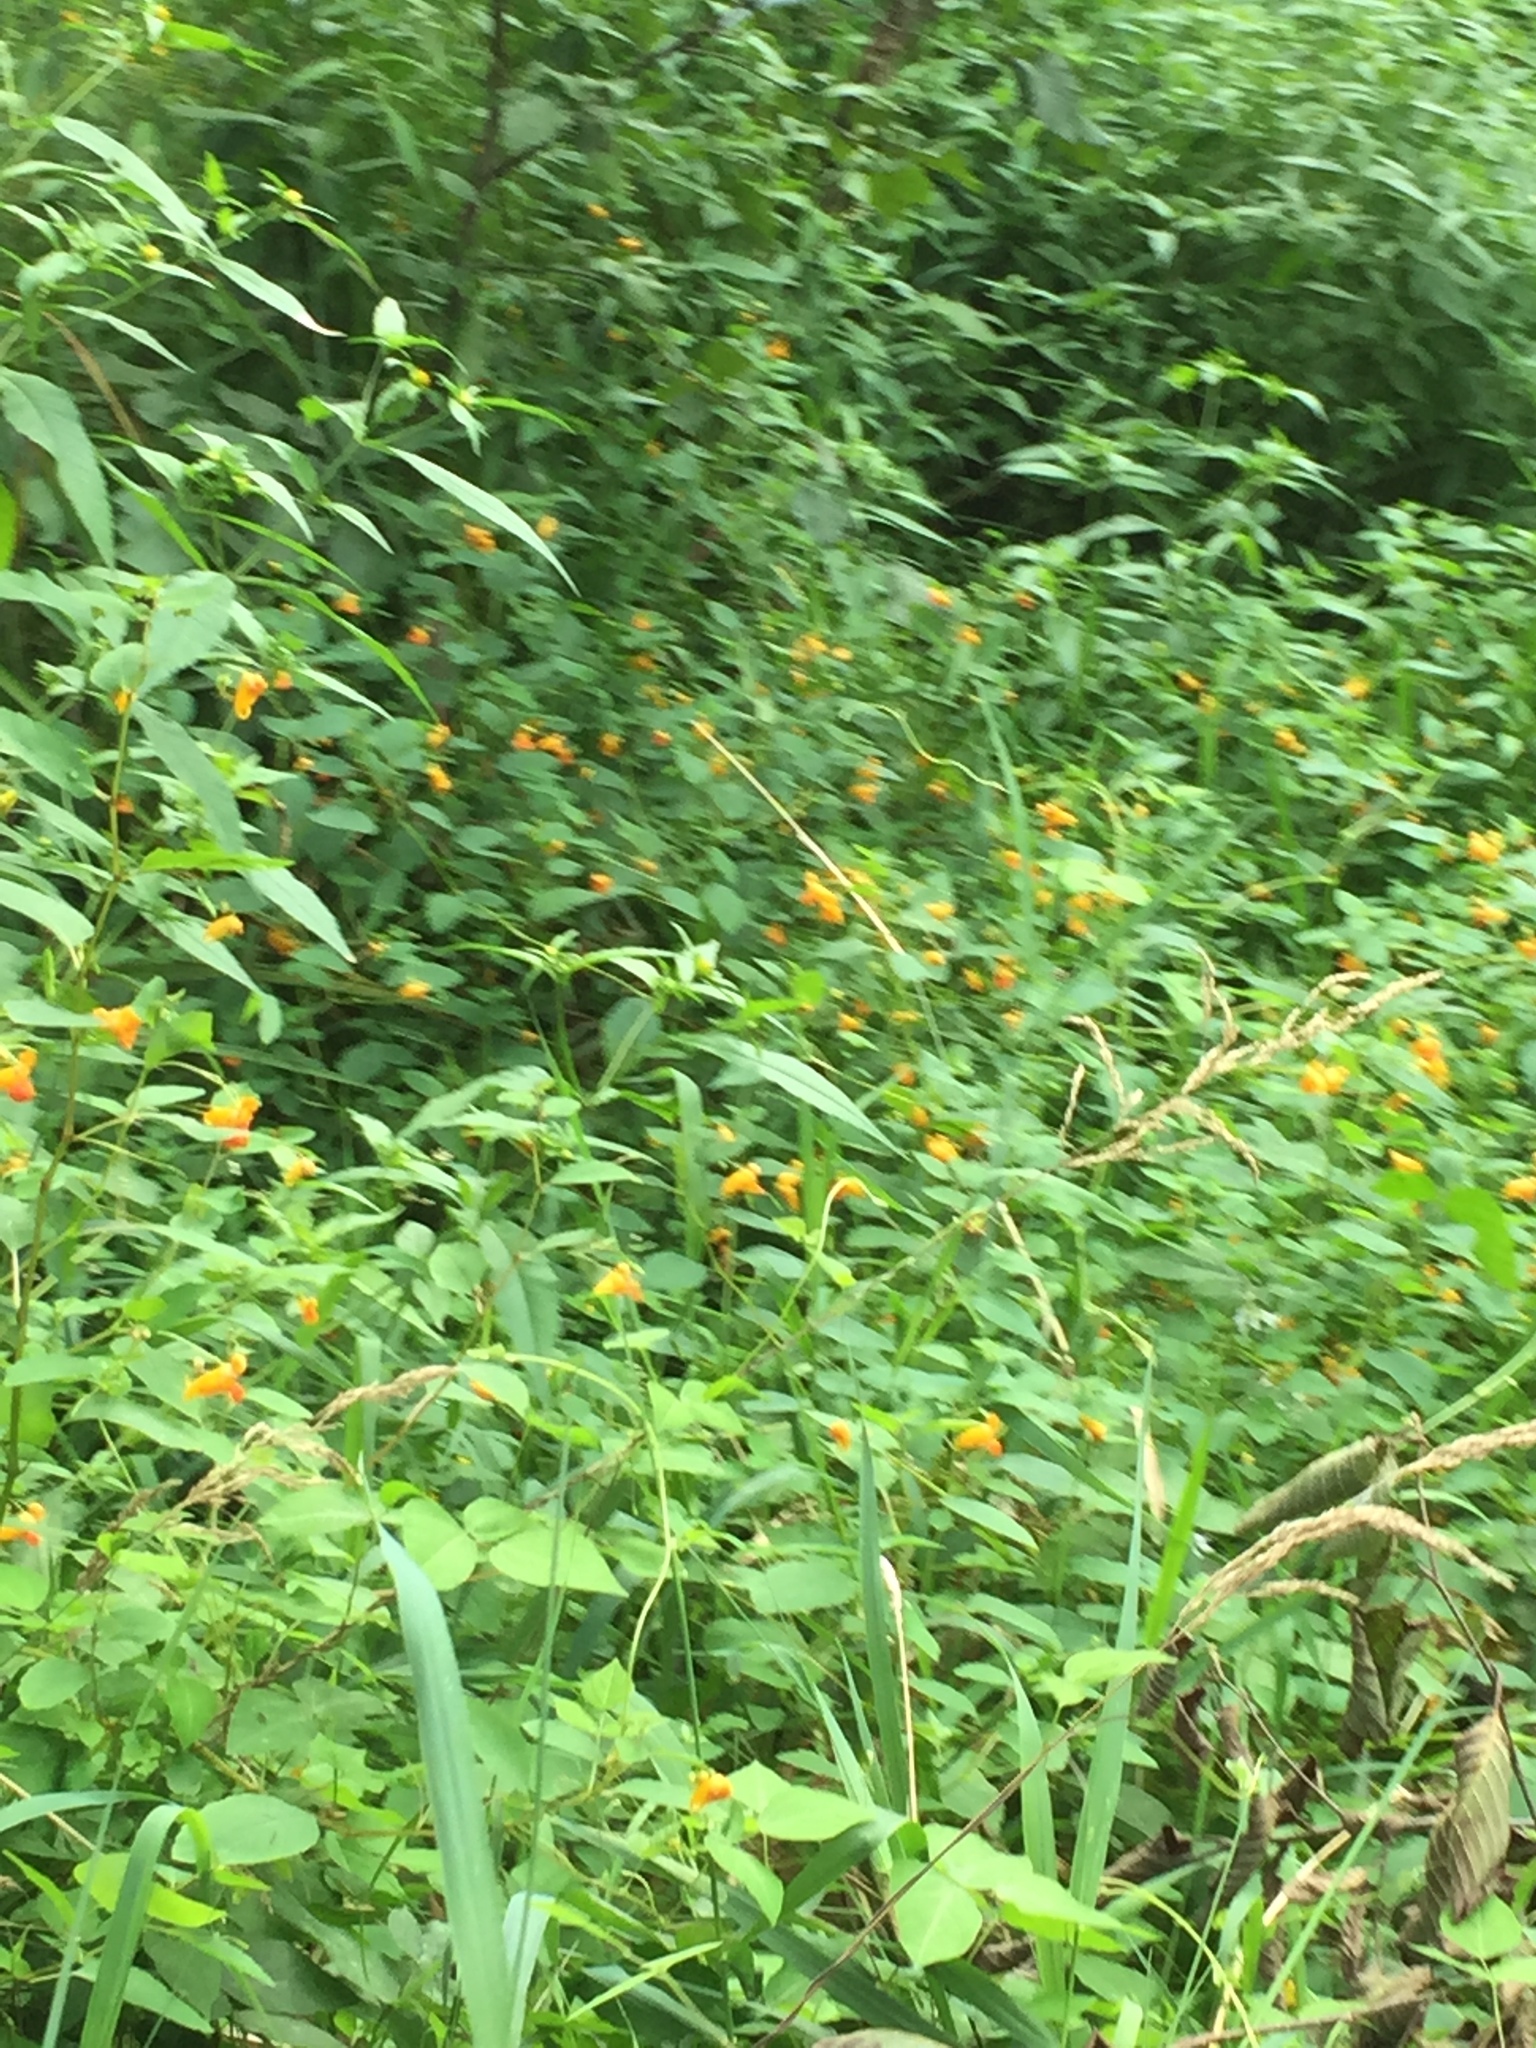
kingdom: Plantae
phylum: Tracheophyta
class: Magnoliopsida
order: Ericales
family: Balsaminaceae
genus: Impatiens
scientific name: Impatiens capensis
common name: Orange balsam
